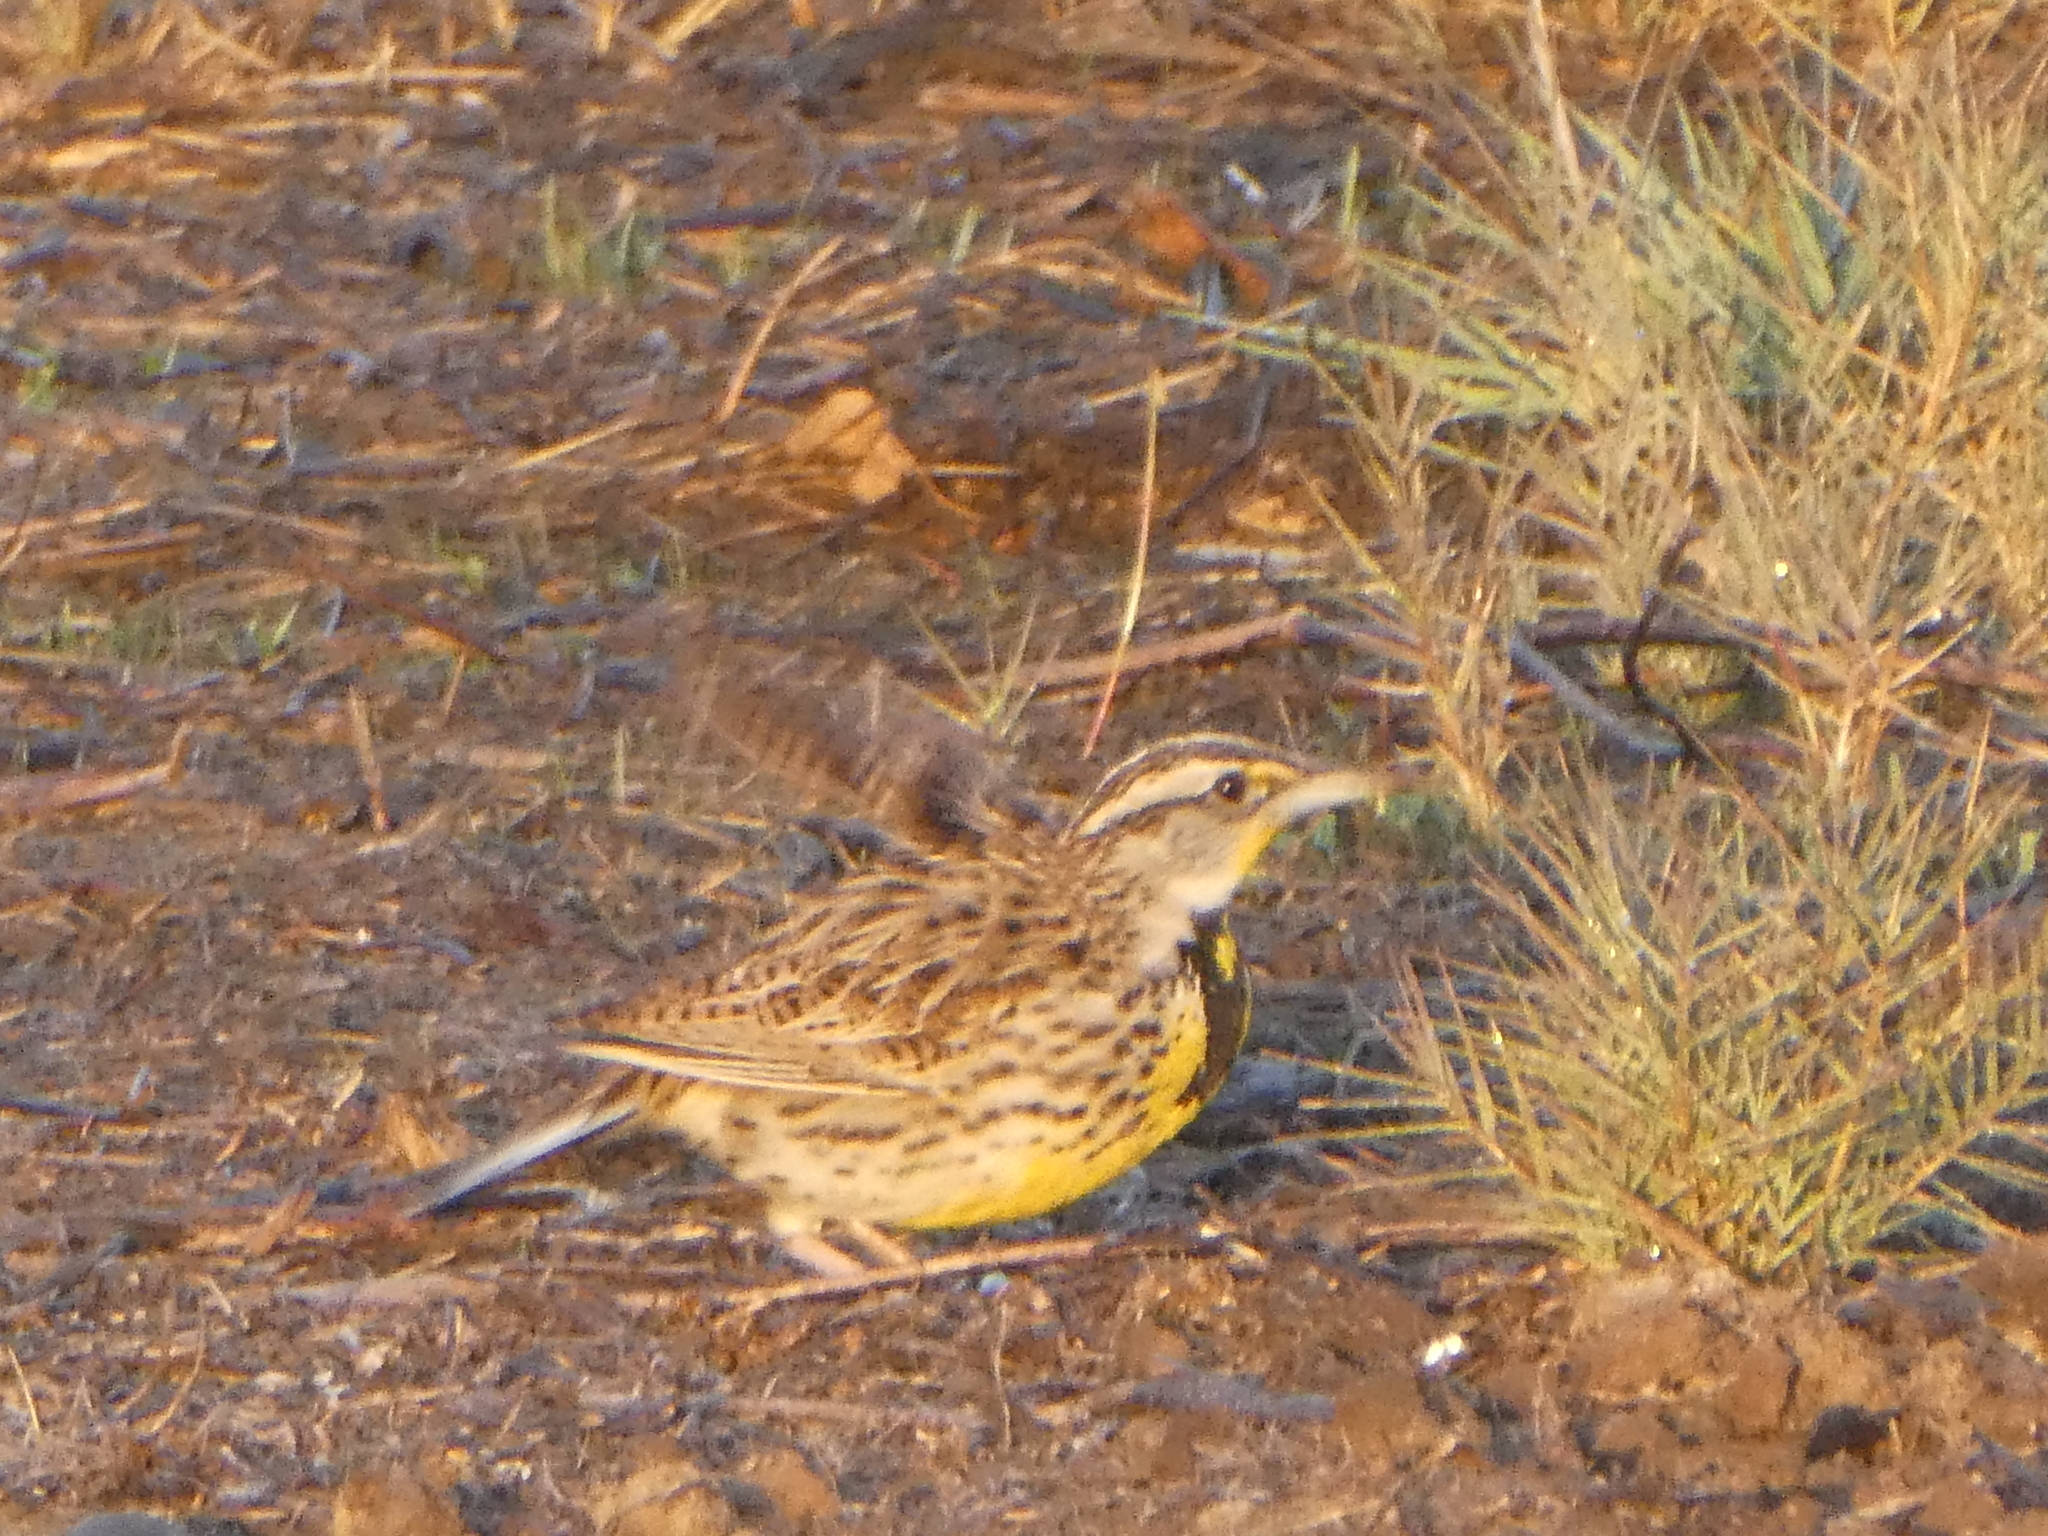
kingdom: Animalia
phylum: Chordata
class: Aves
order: Passeriformes
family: Icteridae
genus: Sturnella
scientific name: Sturnella neglecta
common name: Western meadowlark
